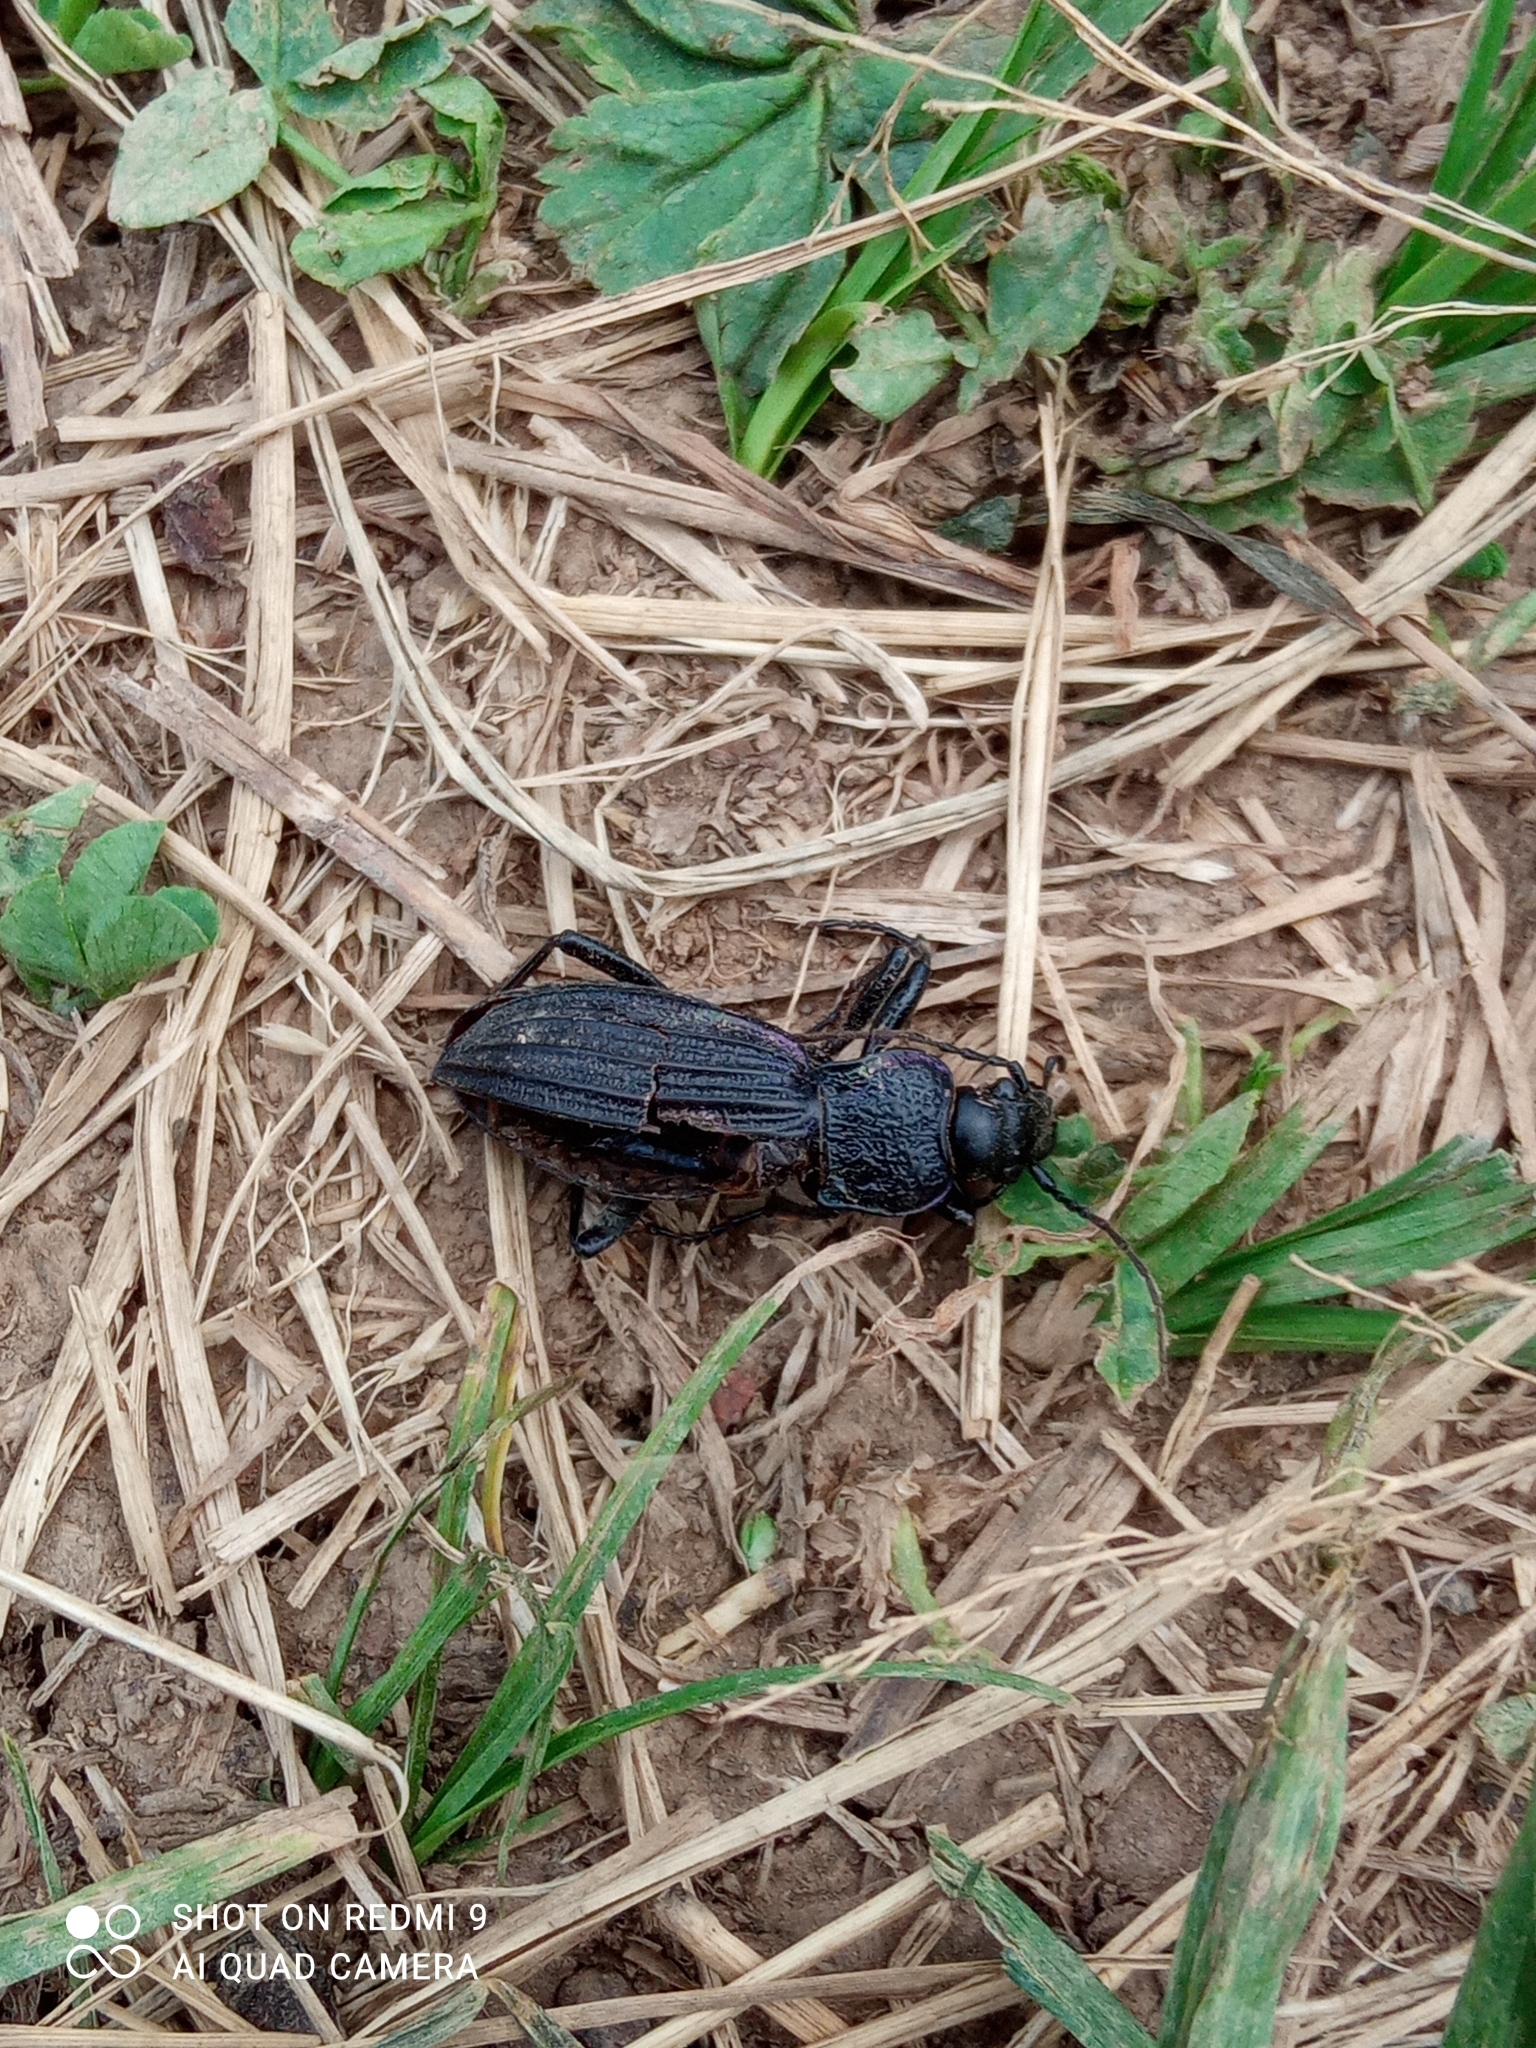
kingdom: Animalia
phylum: Arthropoda
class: Insecta
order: Coleoptera
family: Carabidae
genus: Carabus
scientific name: Carabus exaratus
